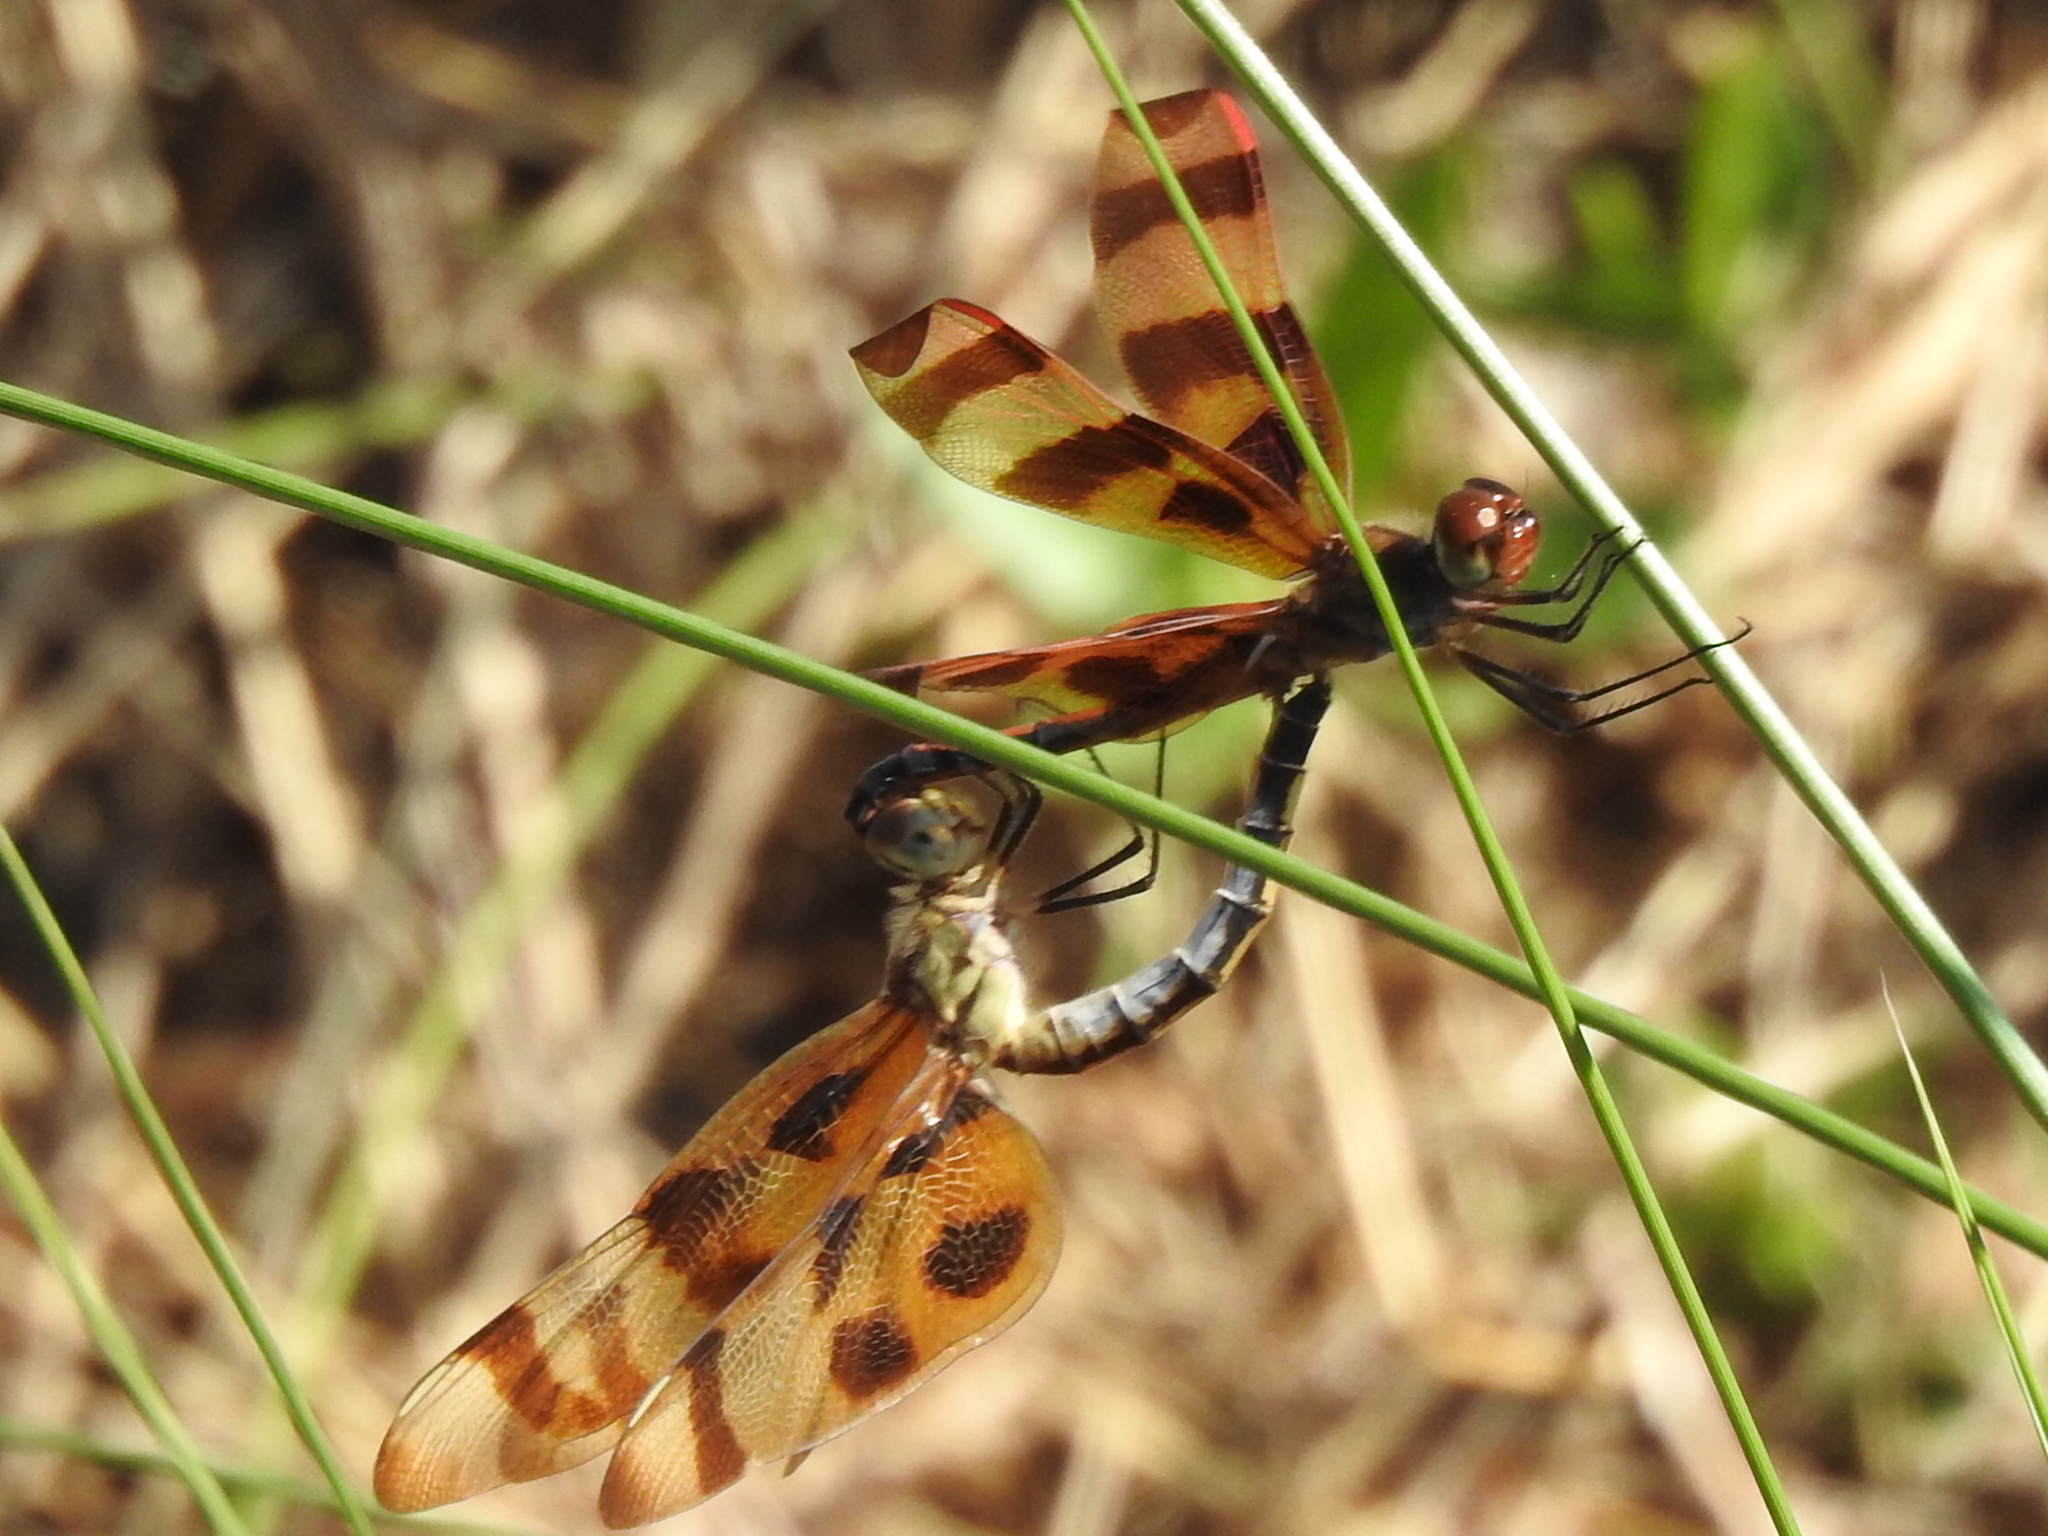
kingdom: Animalia
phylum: Arthropoda
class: Insecta
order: Odonata
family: Libellulidae
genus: Celithemis
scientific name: Celithemis eponina
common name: Halloween pennant
